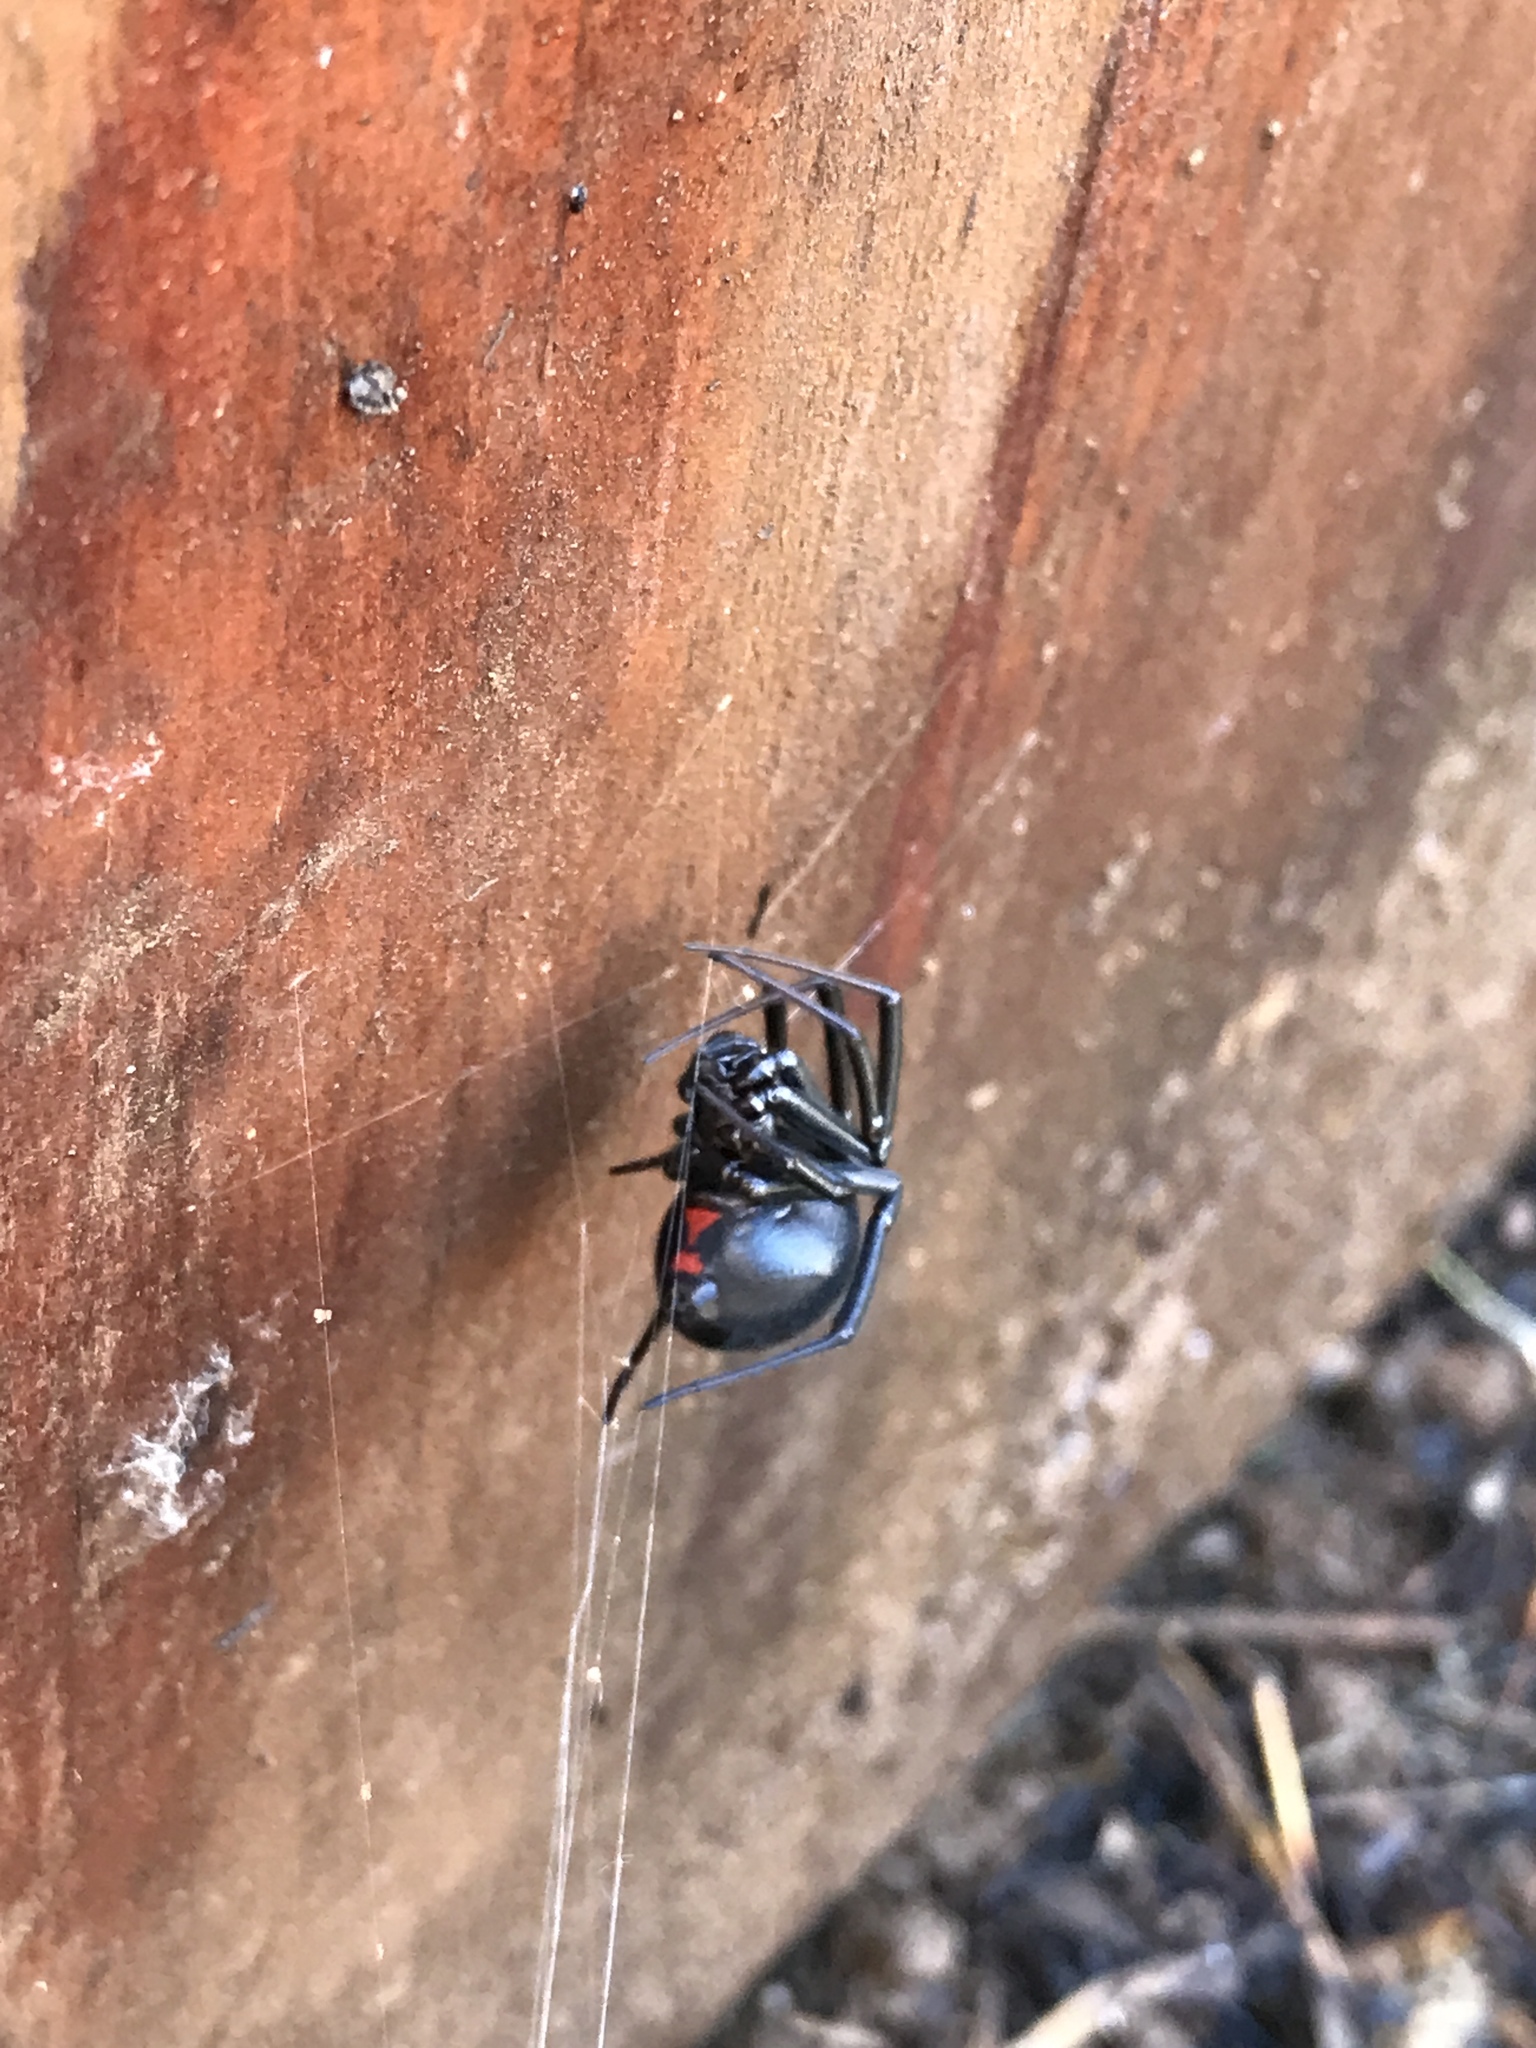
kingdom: Animalia
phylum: Arthropoda
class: Arachnida
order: Araneae
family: Theridiidae
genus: Latrodectus
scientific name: Latrodectus hesperus
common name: Western black widow
